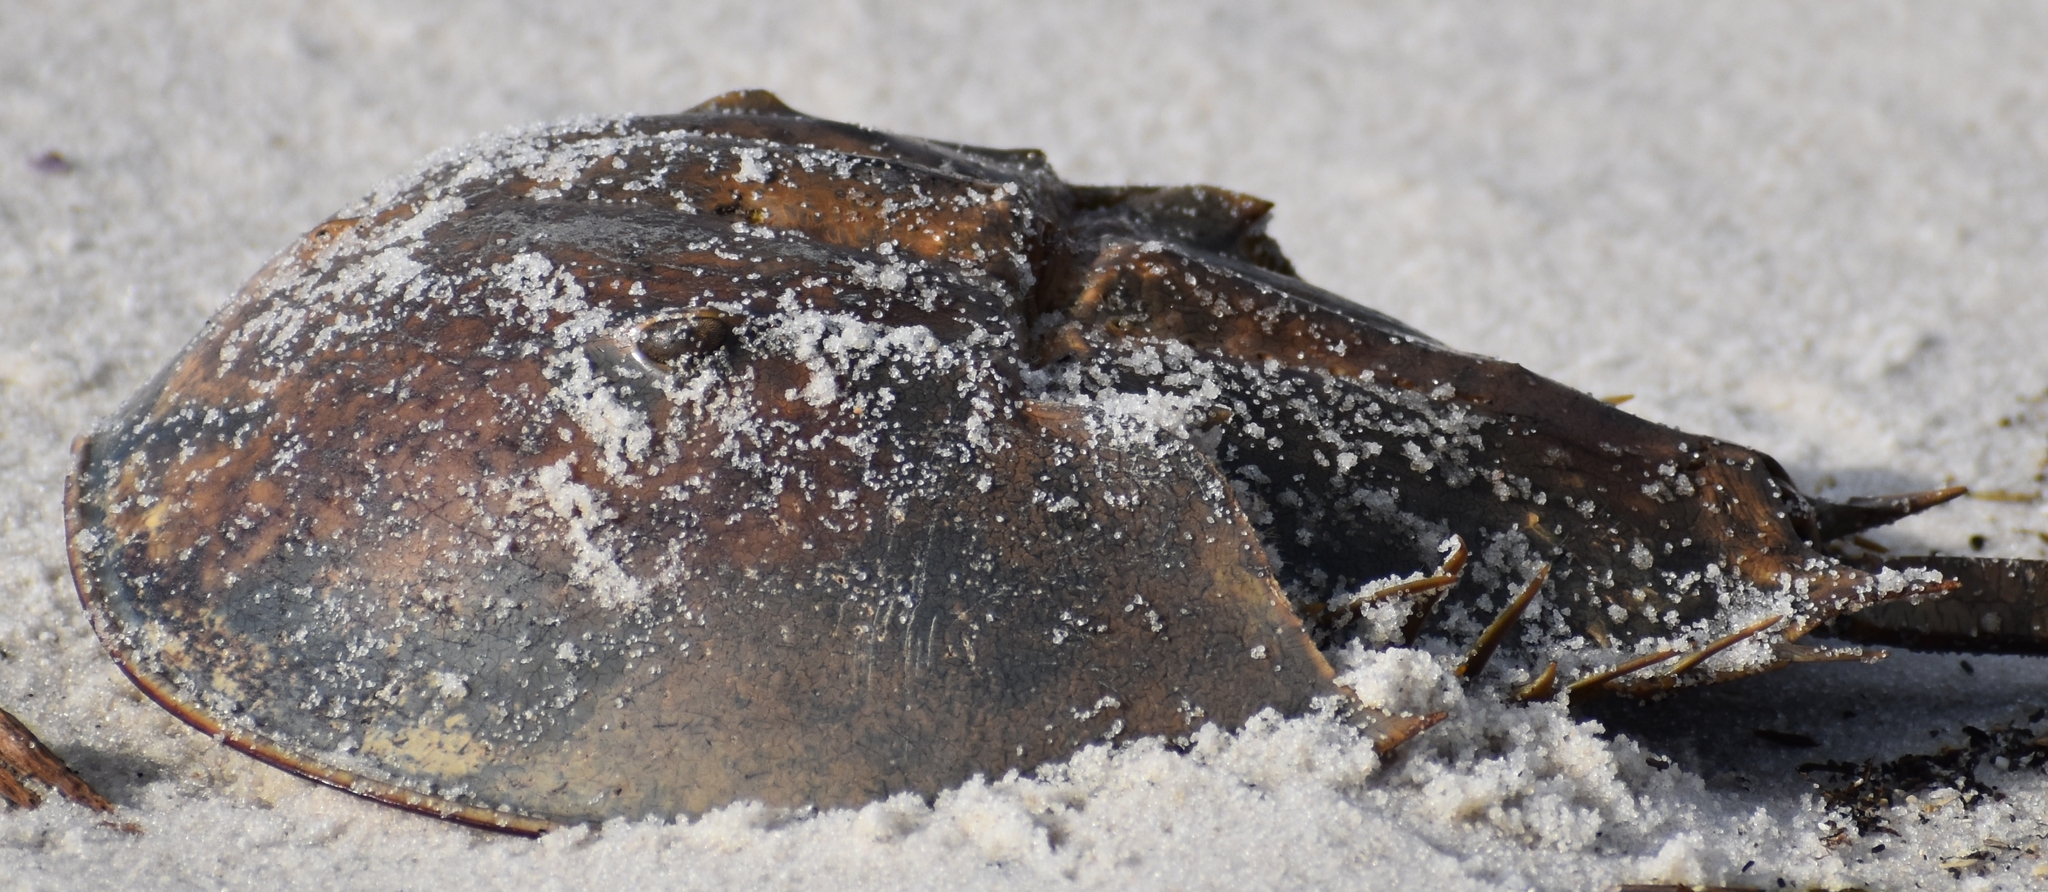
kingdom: Animalia
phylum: Arthropoda
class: Merostomata
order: Xiphosurida
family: Limulidae
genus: Limulus
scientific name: Limulus polyphemus
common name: Horseshoe crab
